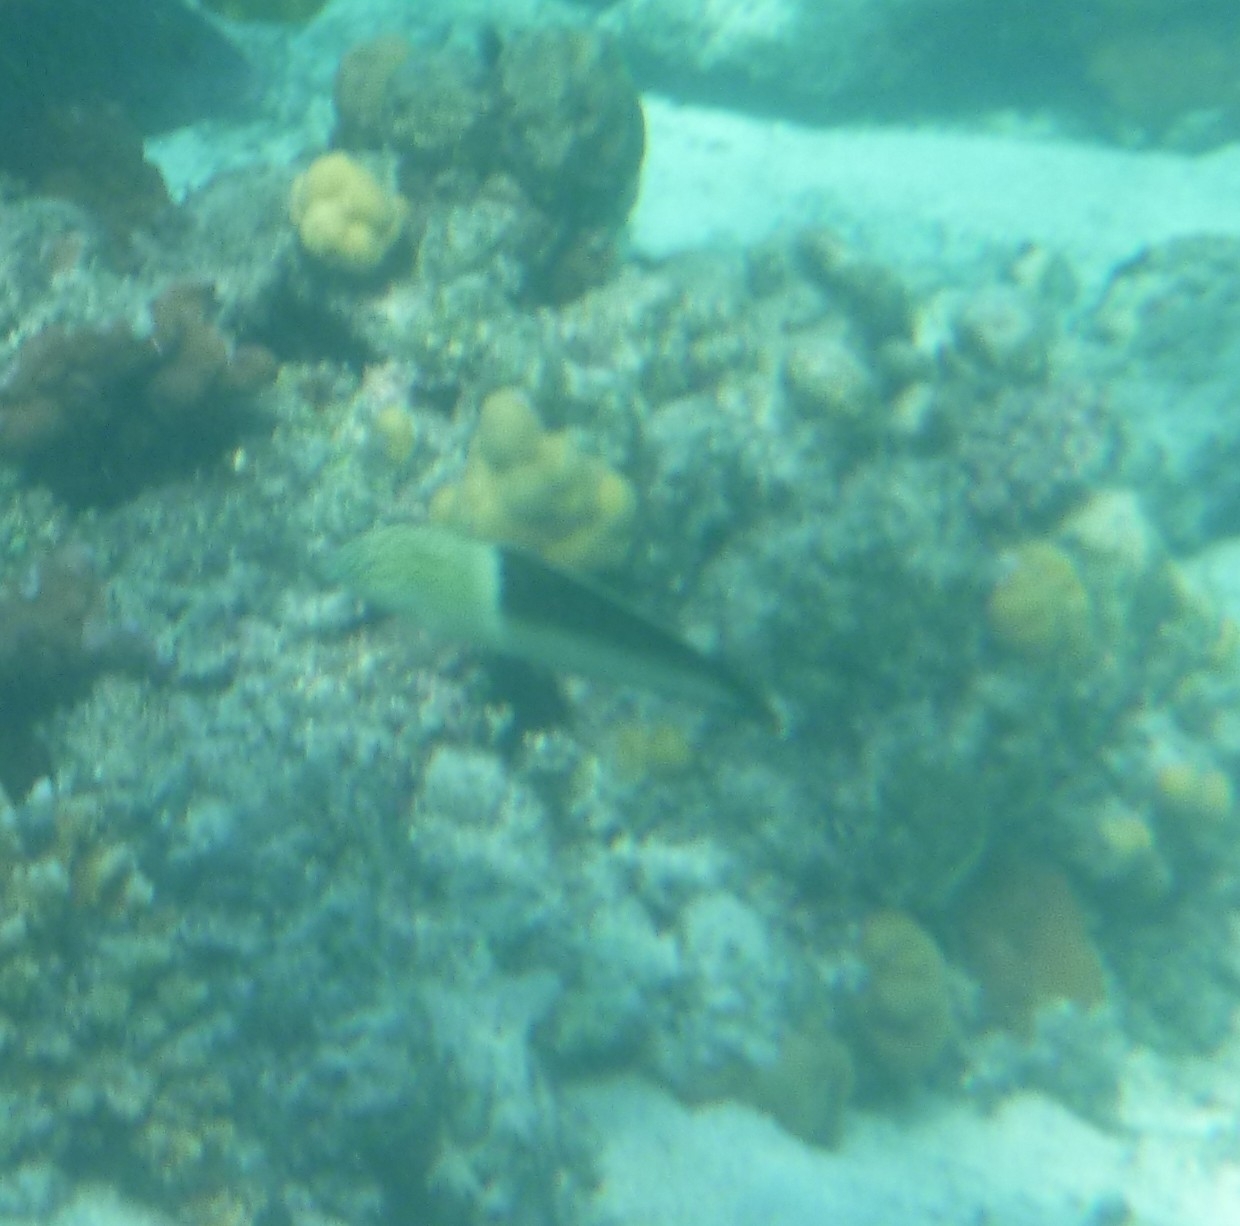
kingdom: Animalia
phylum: Chordata
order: Perciformes
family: Labridae
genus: Coris
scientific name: Coris aygula
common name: Clown coris
